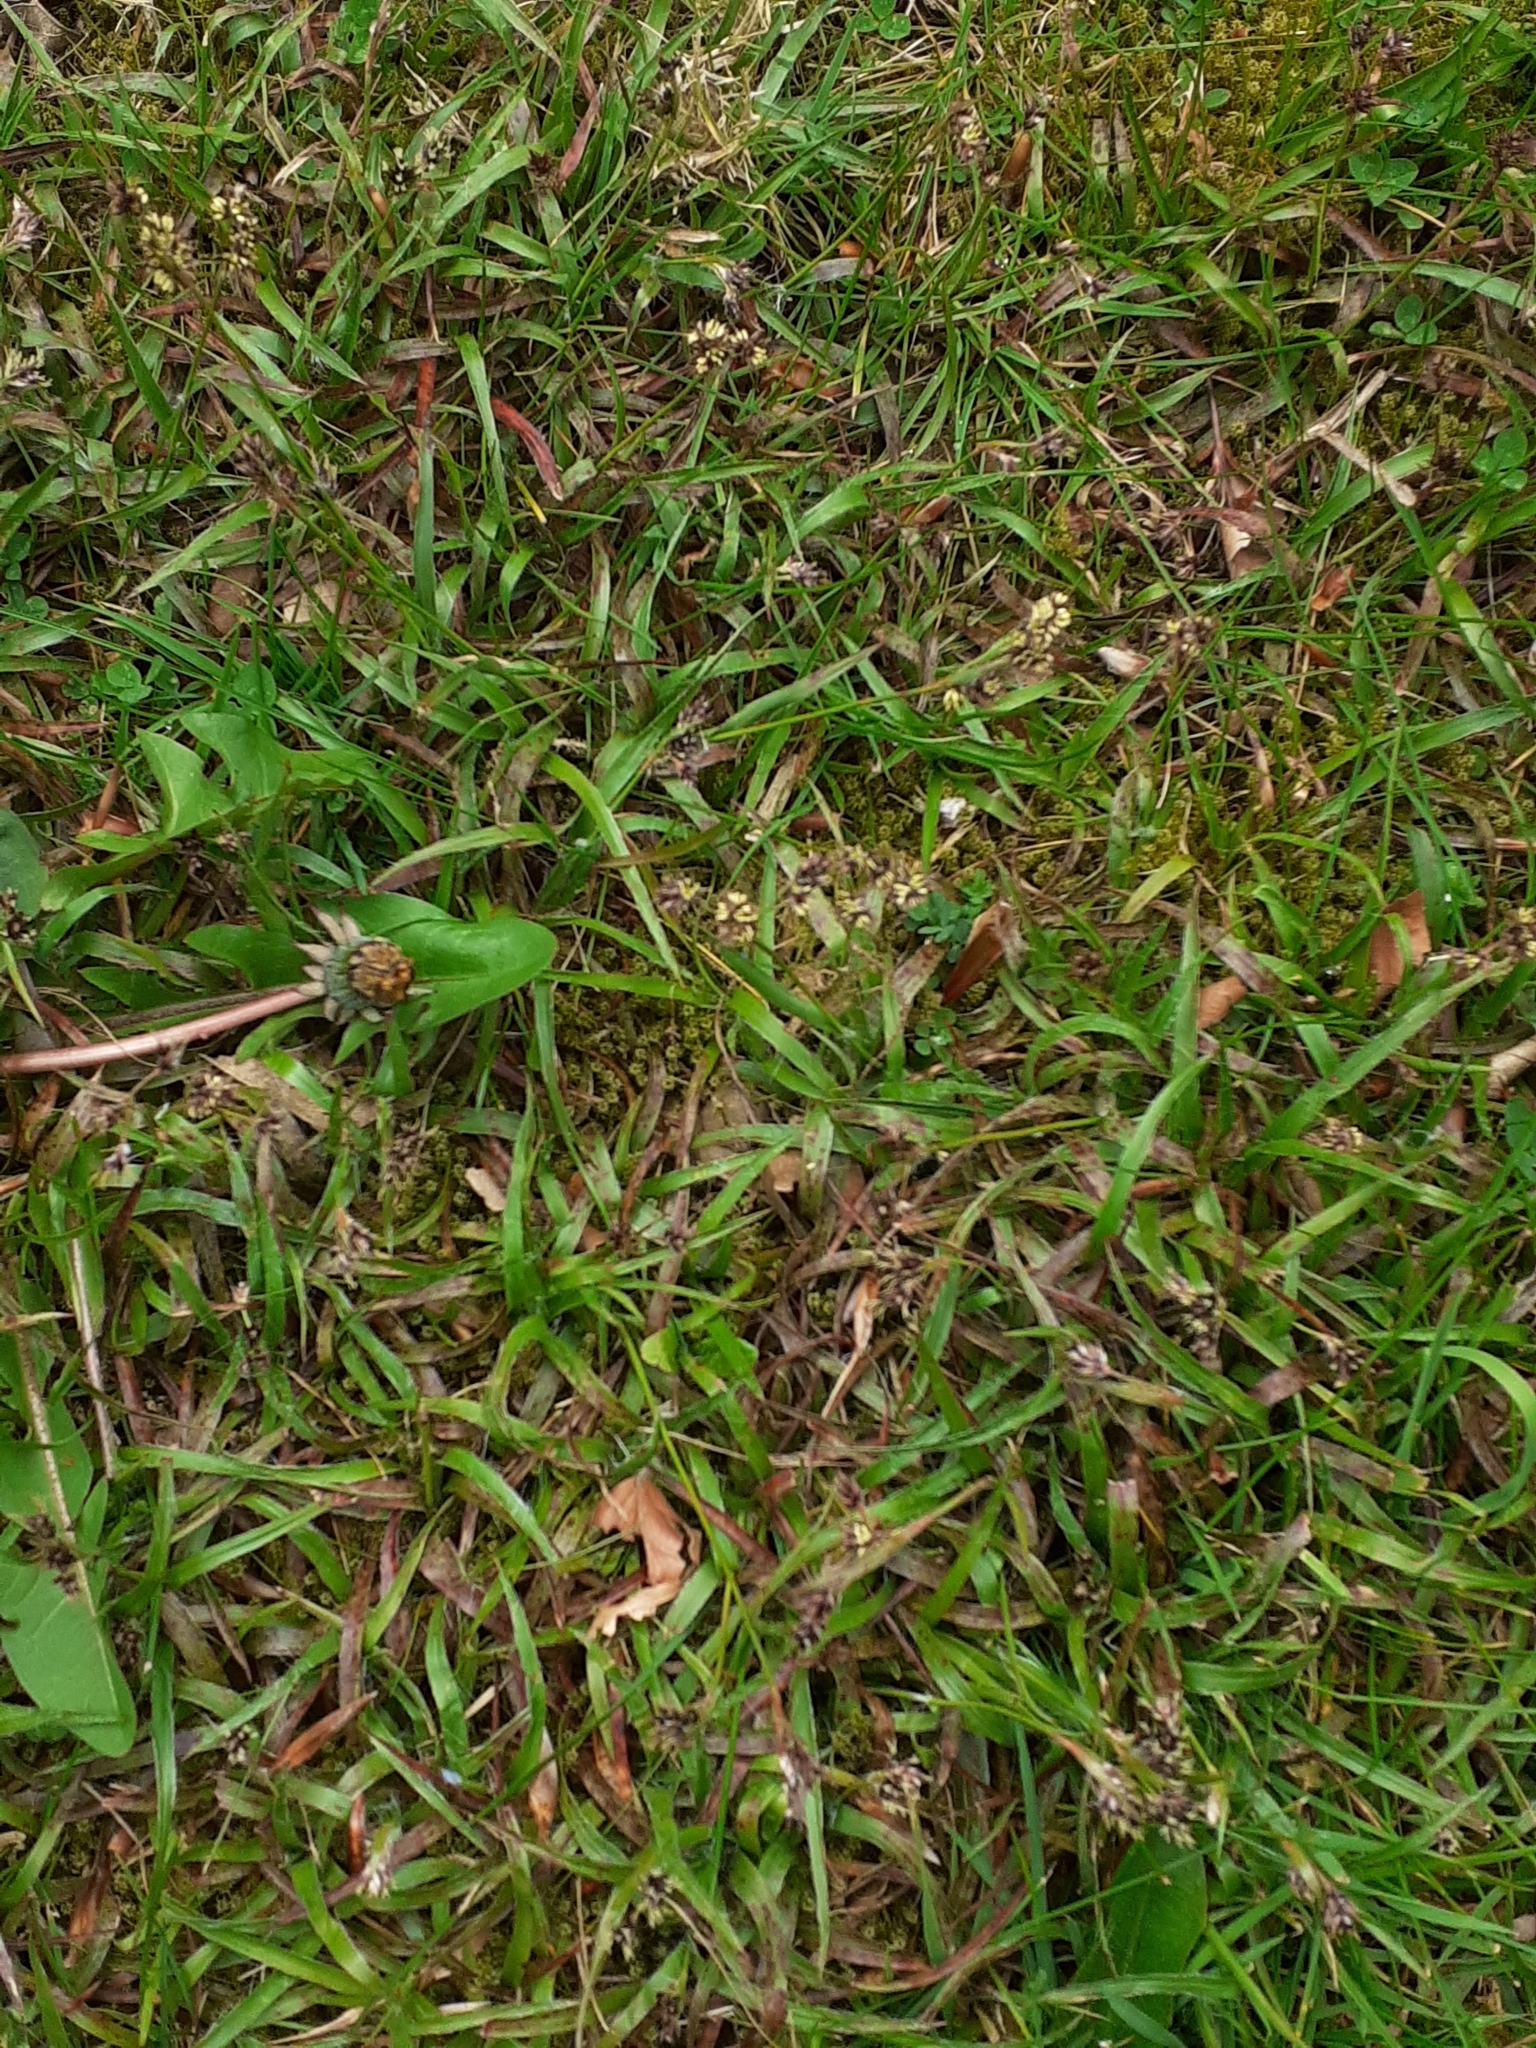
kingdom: Plantae
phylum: Tracheophyta
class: Liliopsida
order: Poales
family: Juncaceae
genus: Luzula
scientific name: Luzula campestris
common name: Field wood-rush
